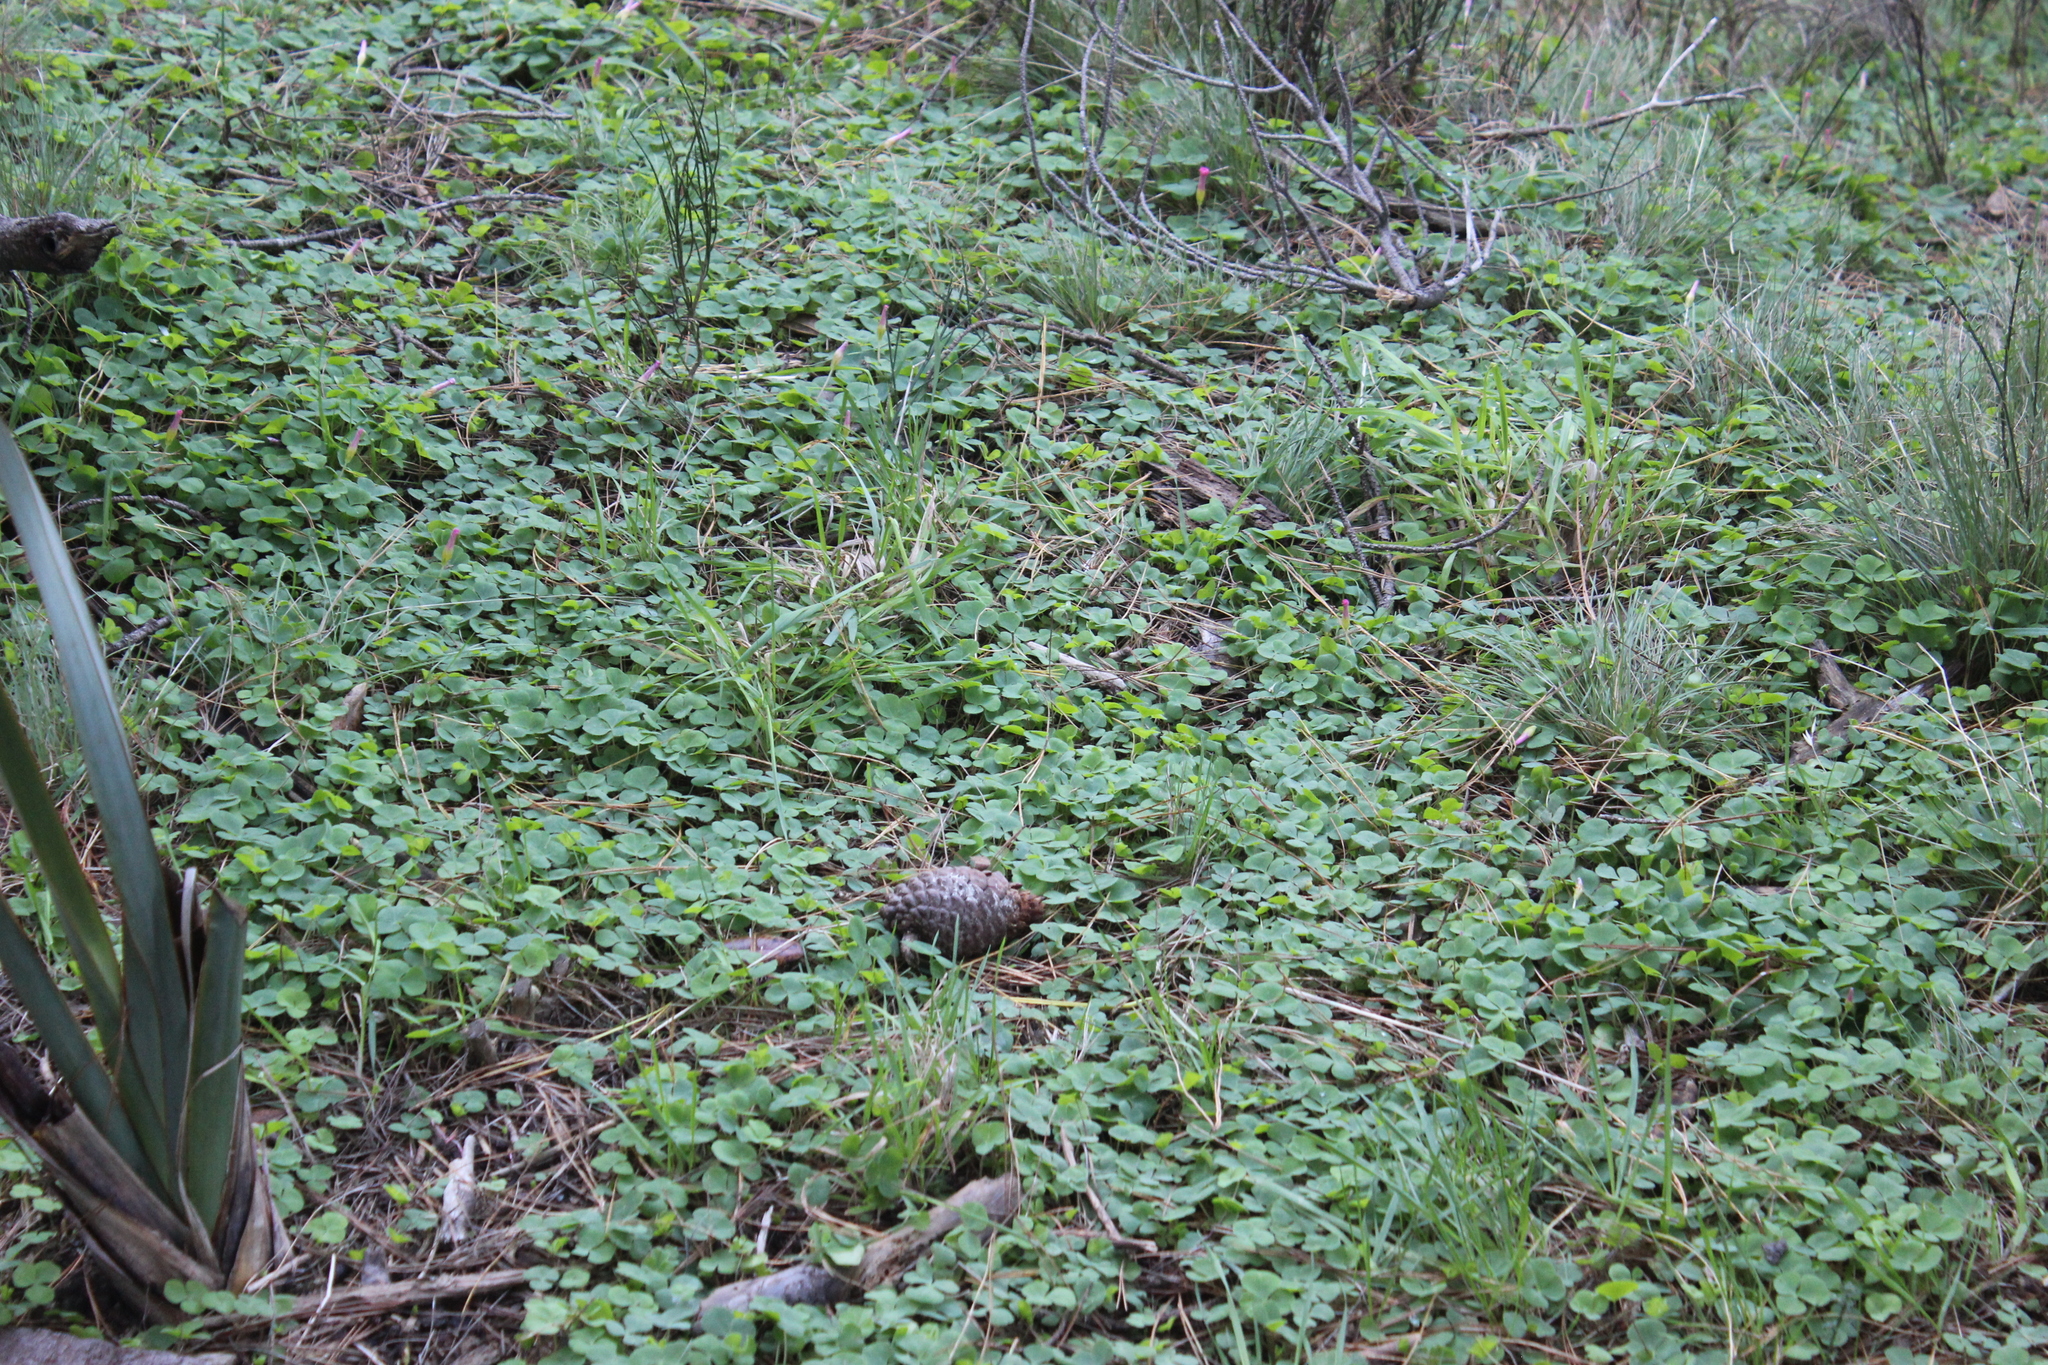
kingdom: Plantae
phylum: Tracheophyta
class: Magnoliopsida
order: Oxalidales
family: Oxalidaceae
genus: Oxalis
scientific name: Oxalis purpurea
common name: Purple woodsorrel
